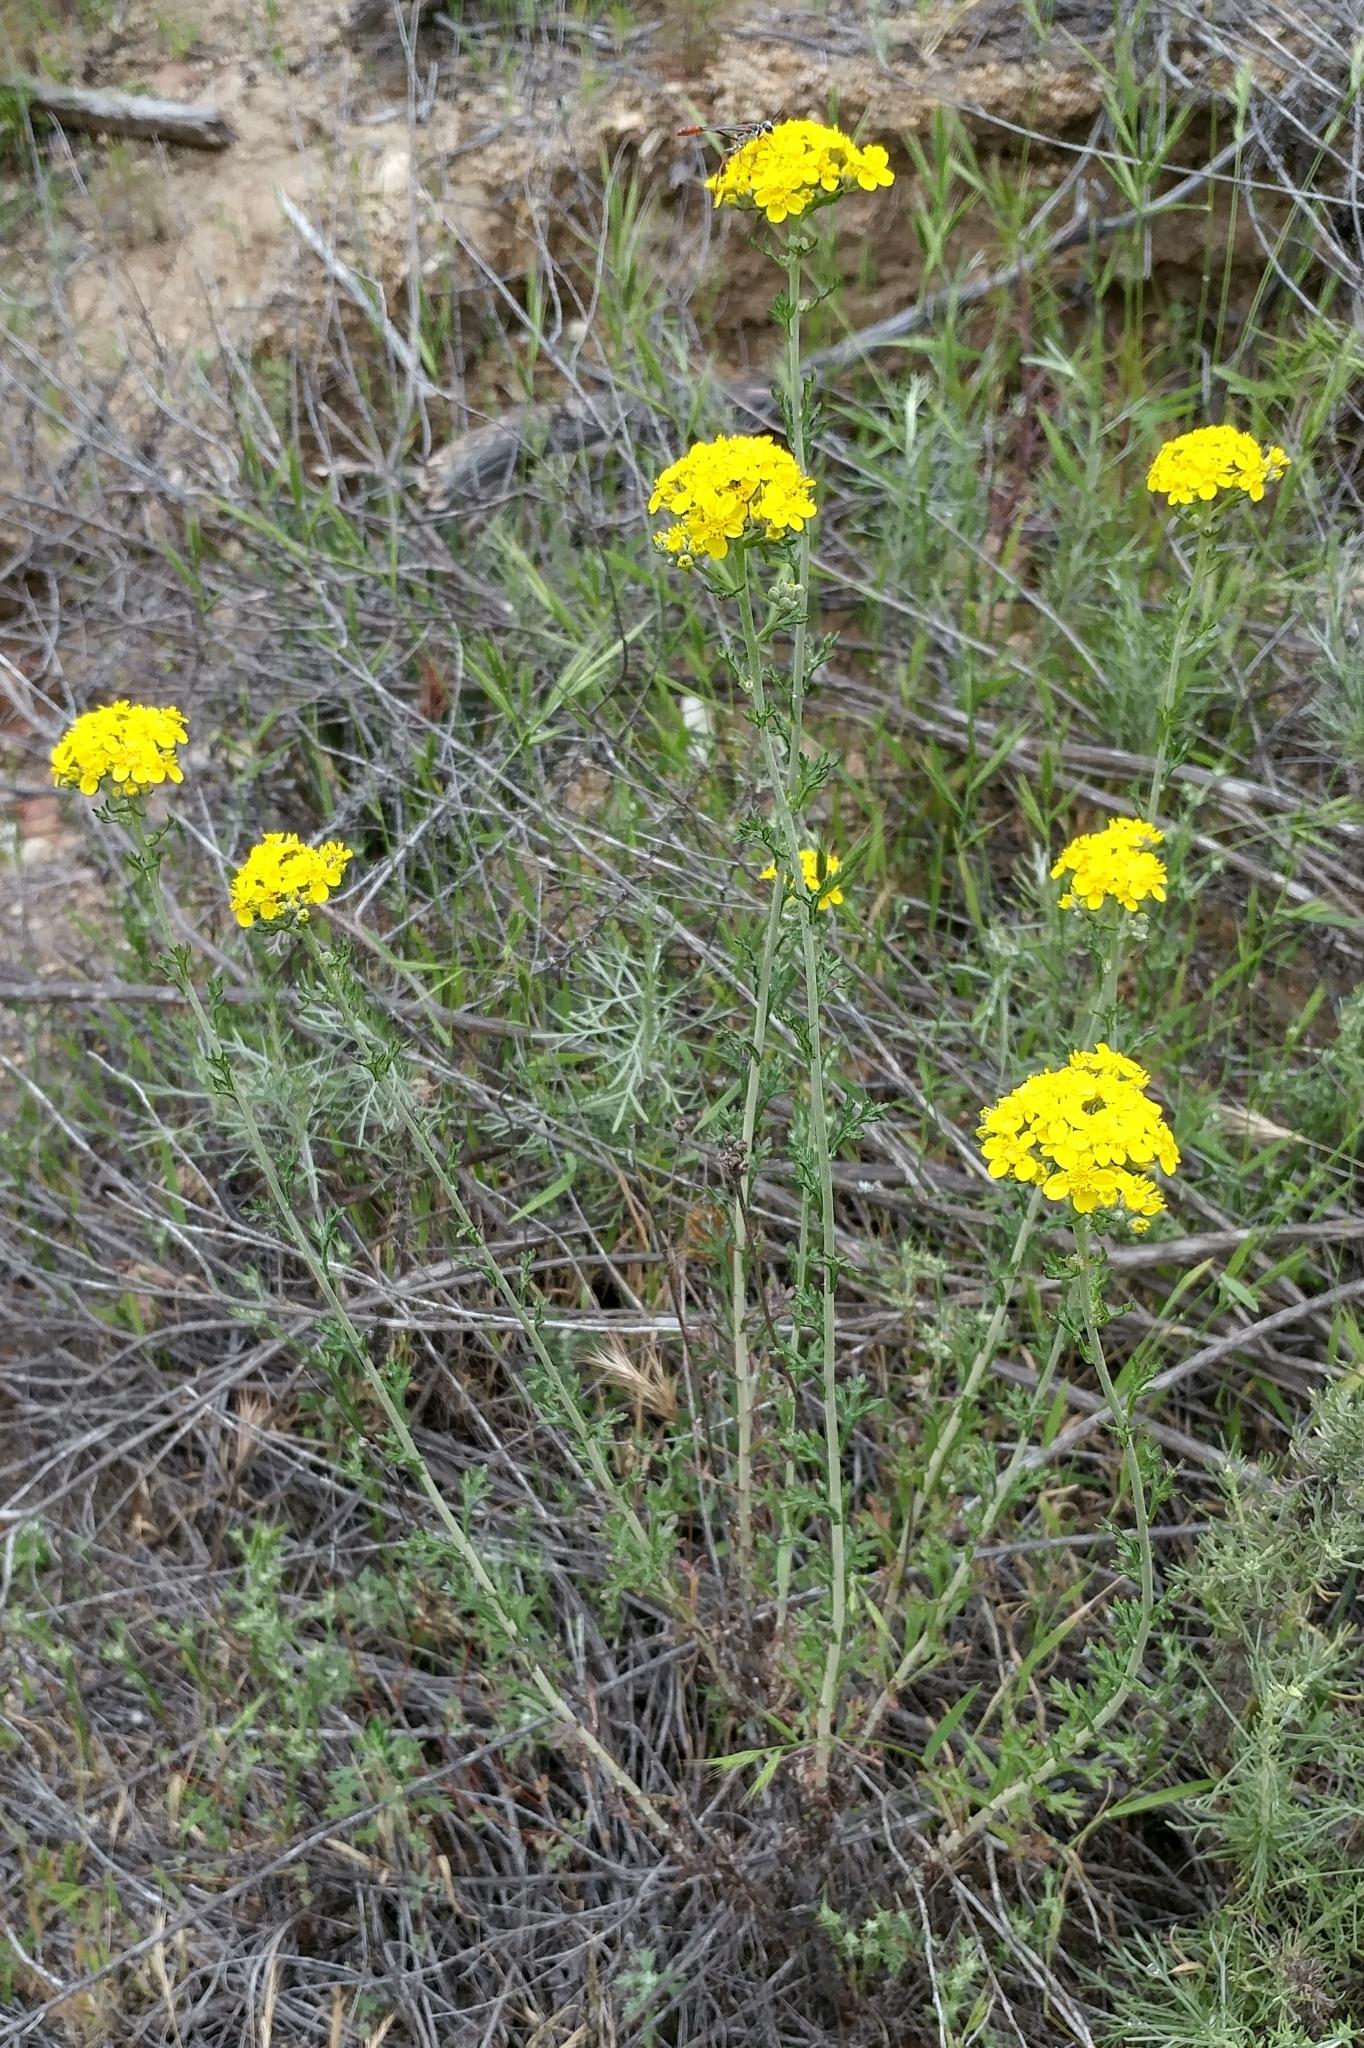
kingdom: Plantae
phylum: Tracheophyta
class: Magnoliopsida
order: Asterales
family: Asteraceae
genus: Eriophyllum
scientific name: Eriophyllum confertiflorum
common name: Golden-yarrow
